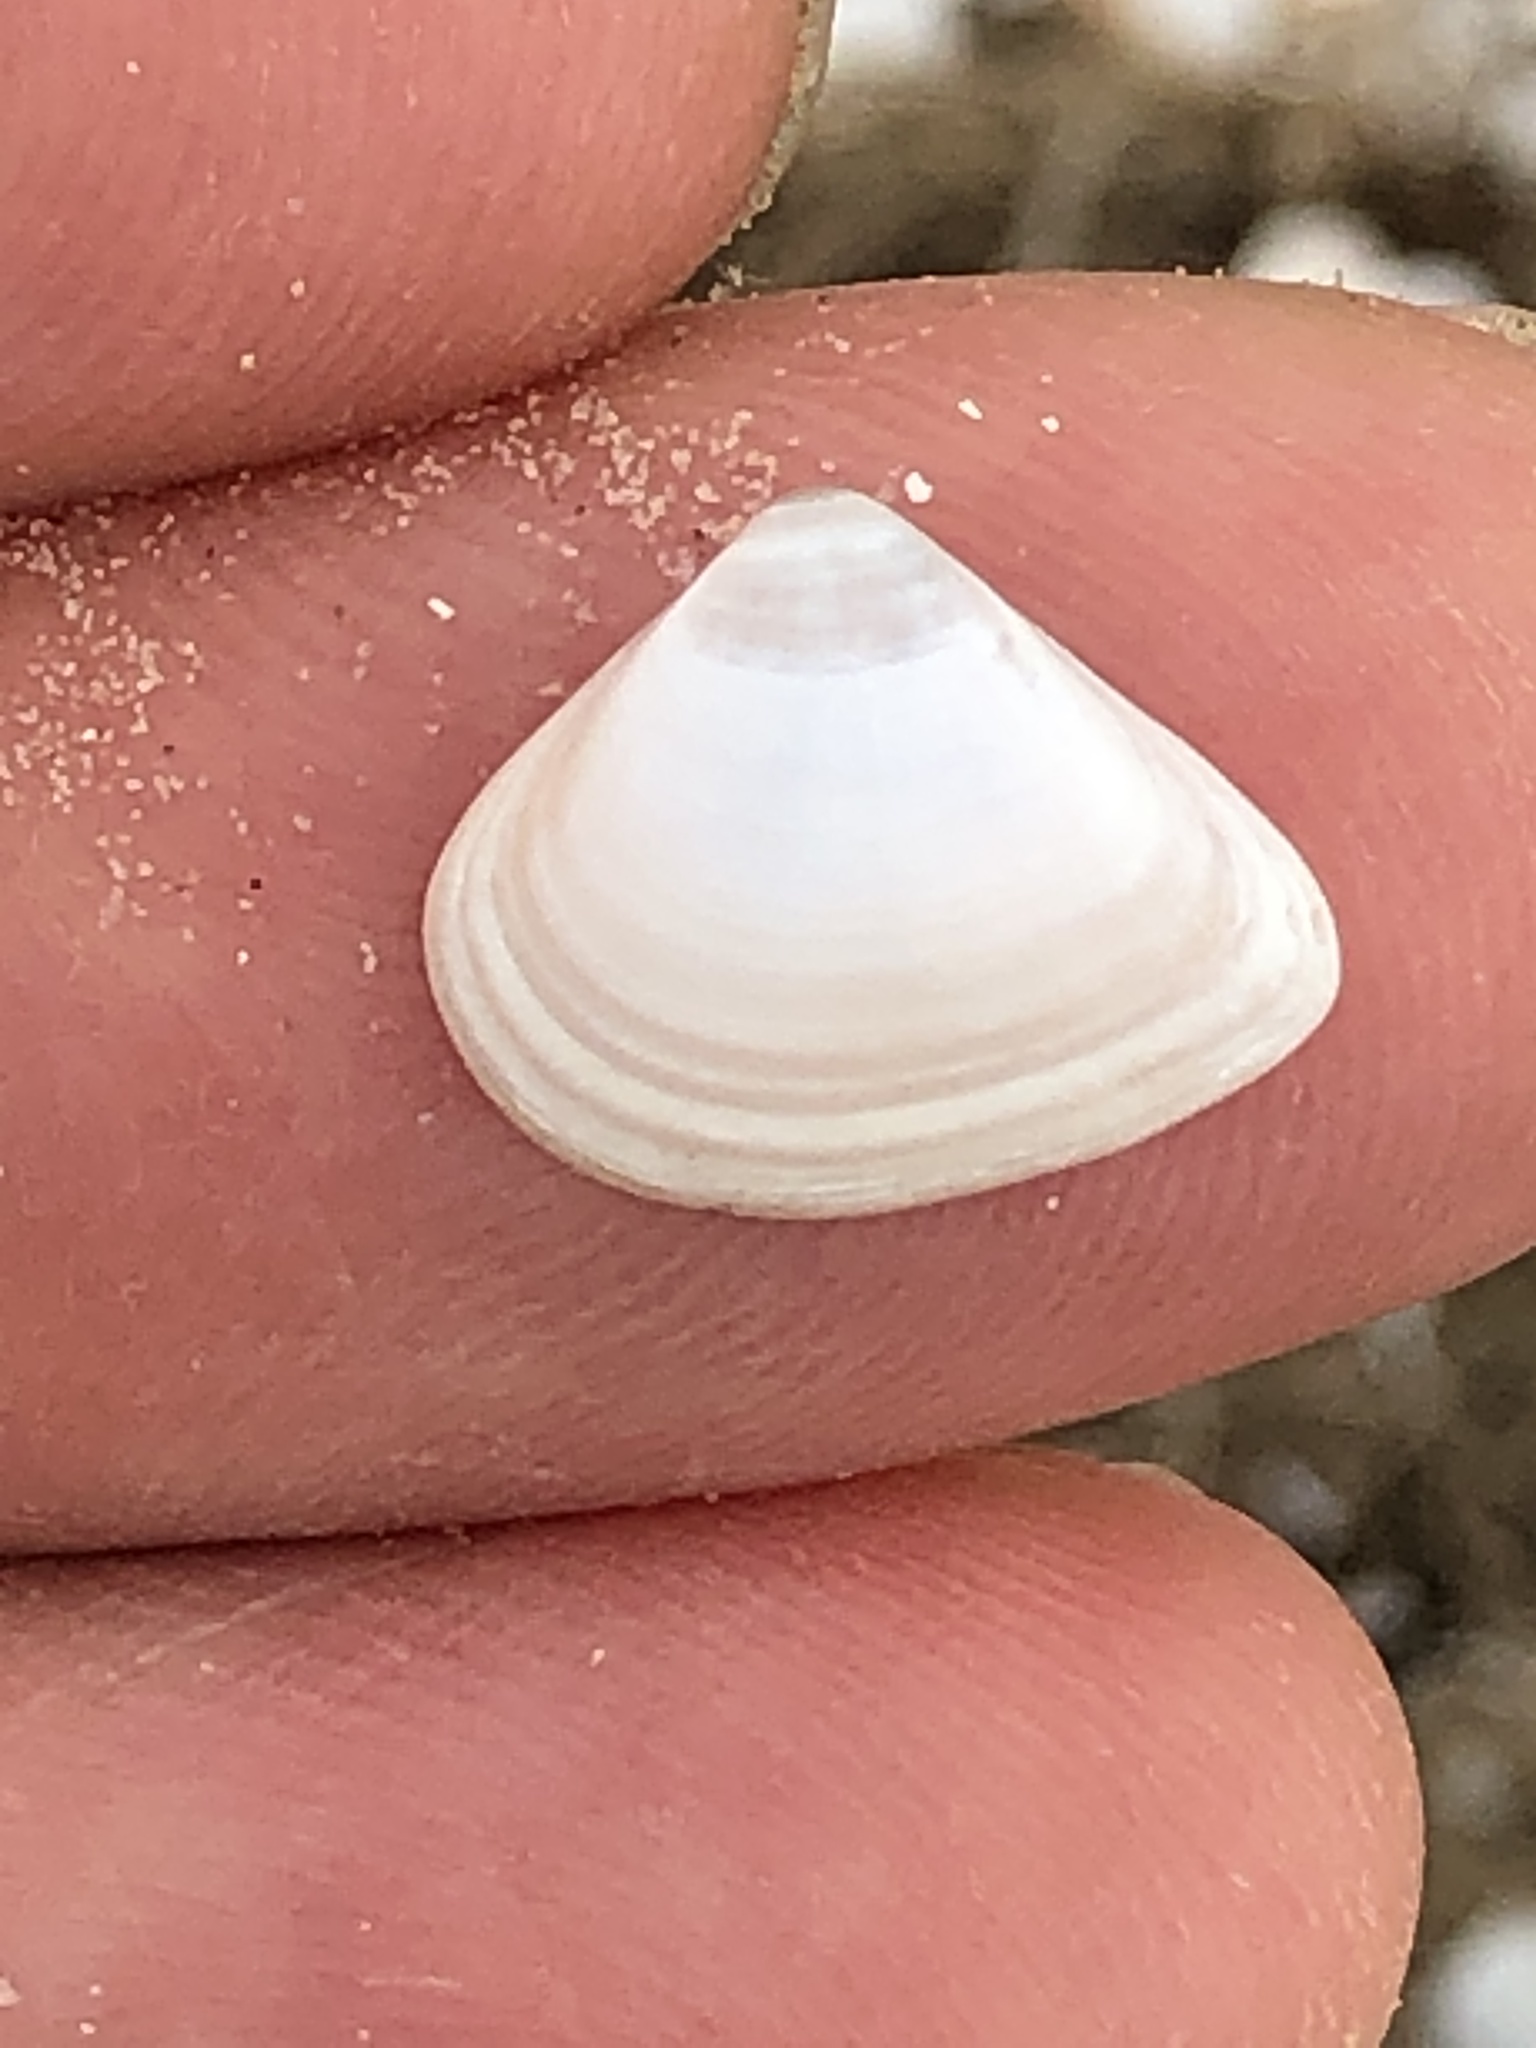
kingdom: Animalia
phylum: Mollusca
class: Bivalvia
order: Venerida
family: Mactridae
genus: Mulinia
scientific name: Mulinia lateralis
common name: Dwarf surfclam
